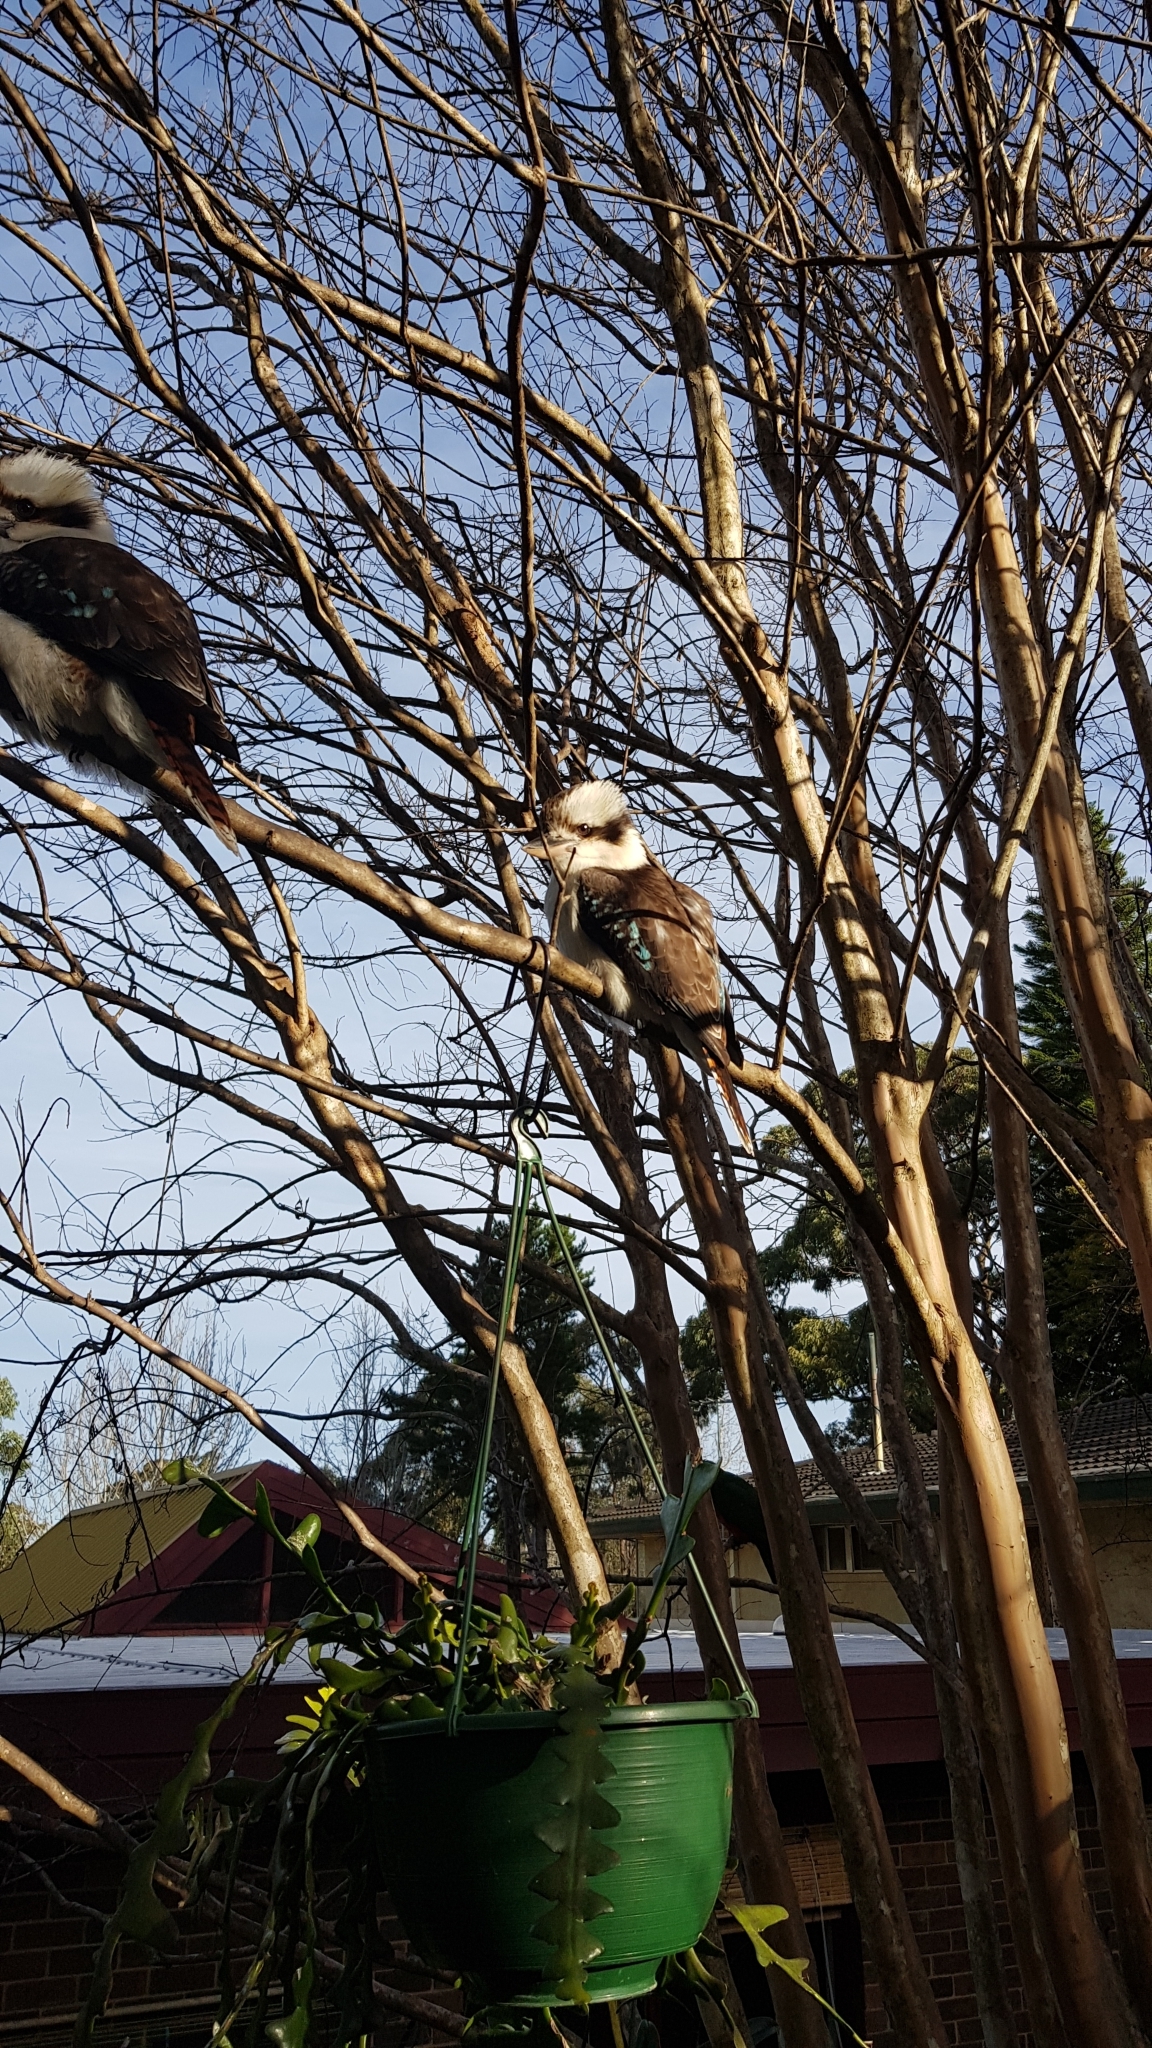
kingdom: Animalia
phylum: Chordata
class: Aves
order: Coraciiformes
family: Alcedinidae
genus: Dacelo
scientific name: Dacelo novaeguineae
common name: Laughing kookaburra
